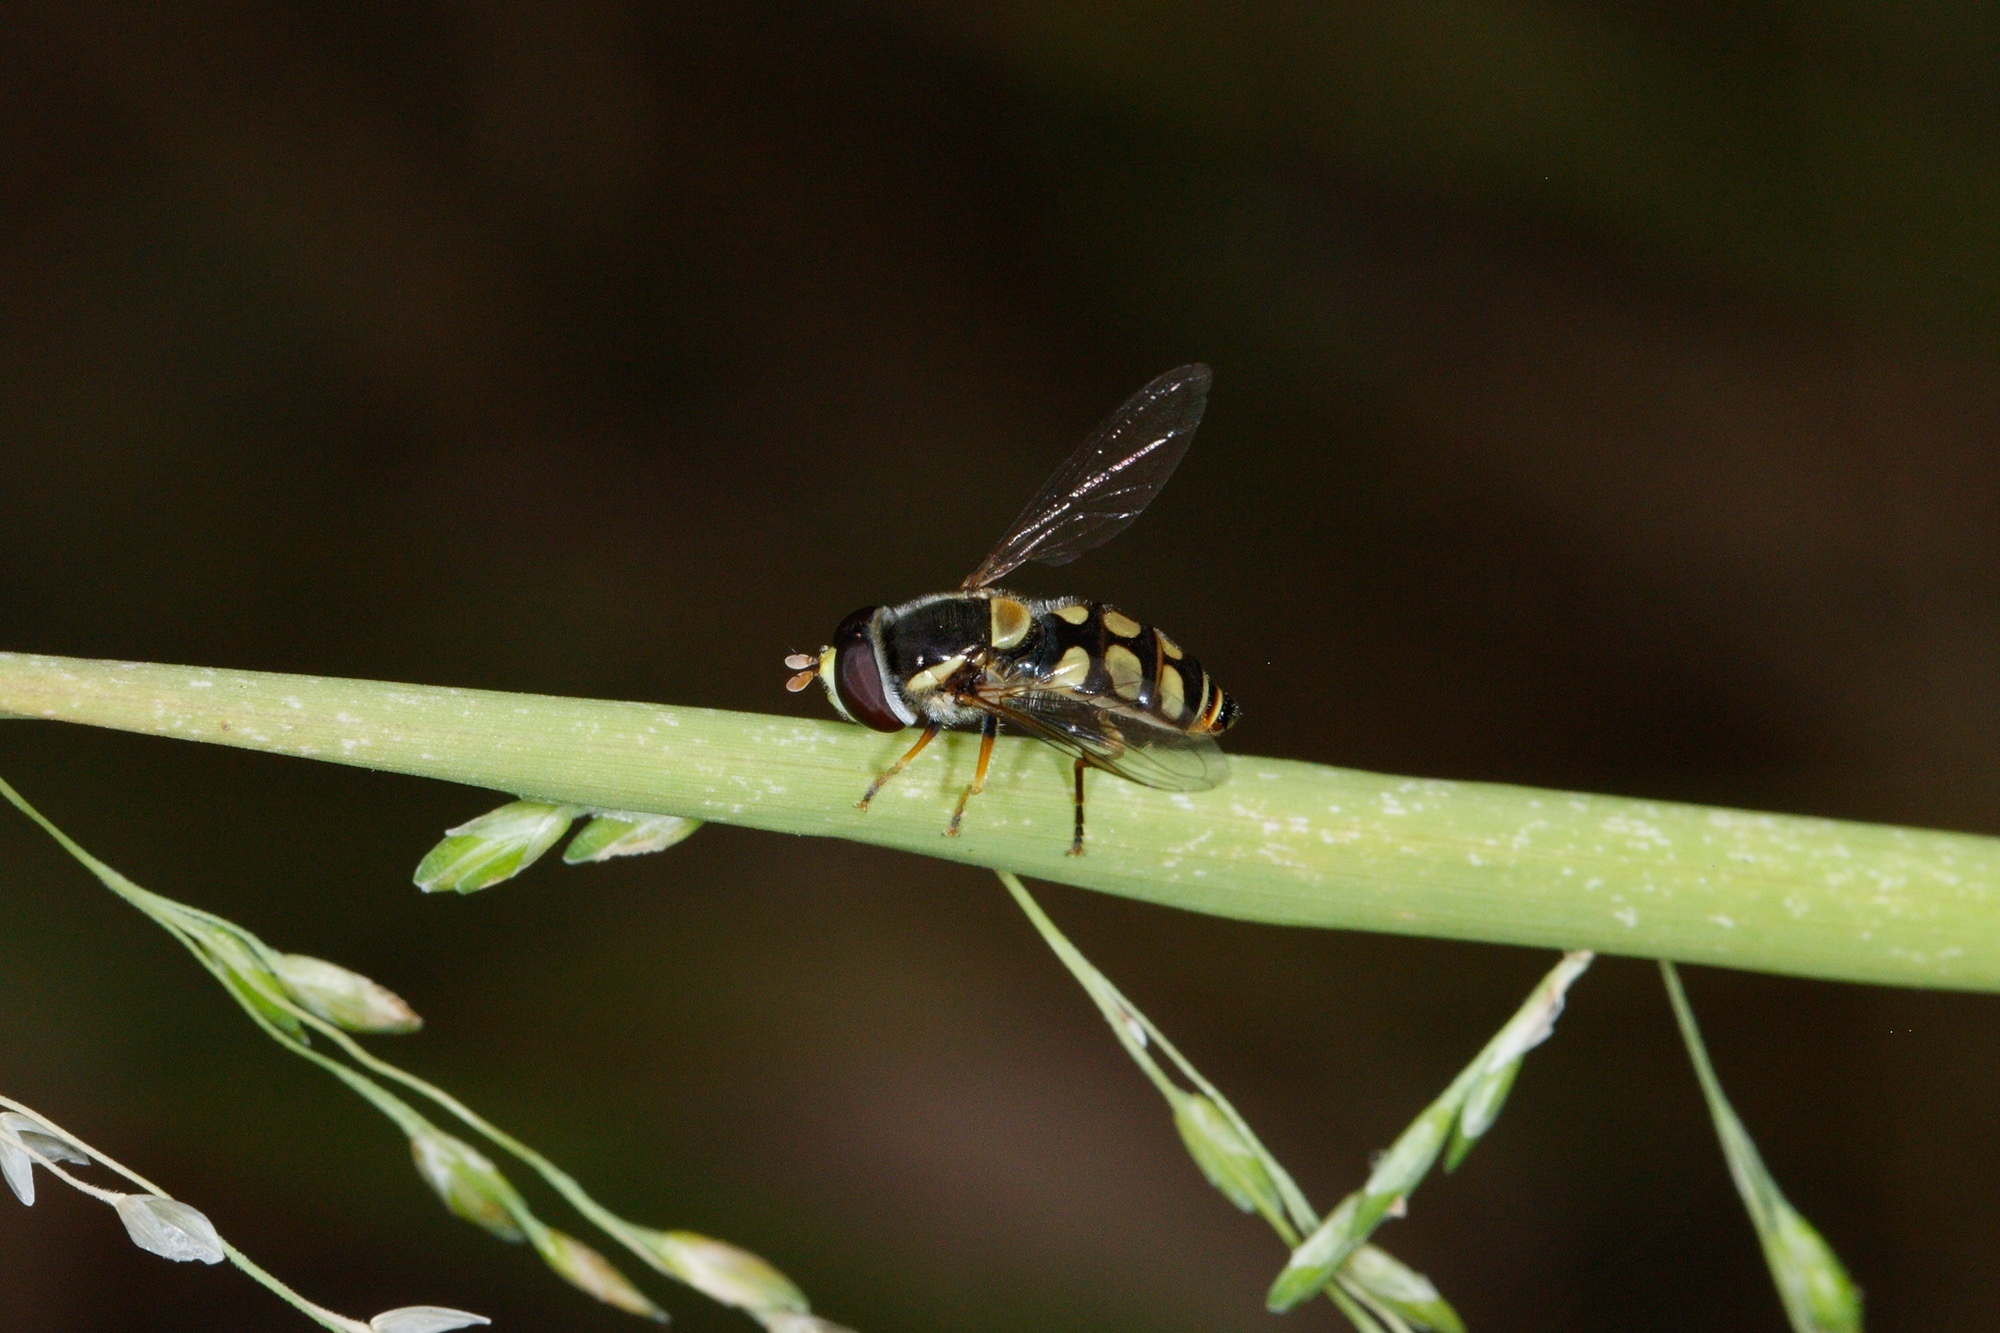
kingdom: Animalia
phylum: Arthropoda
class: Insecta
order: Diptera
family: Syrphidae
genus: Simosyrphus
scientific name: Simosyrphus grandicornis
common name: Hoverfly
